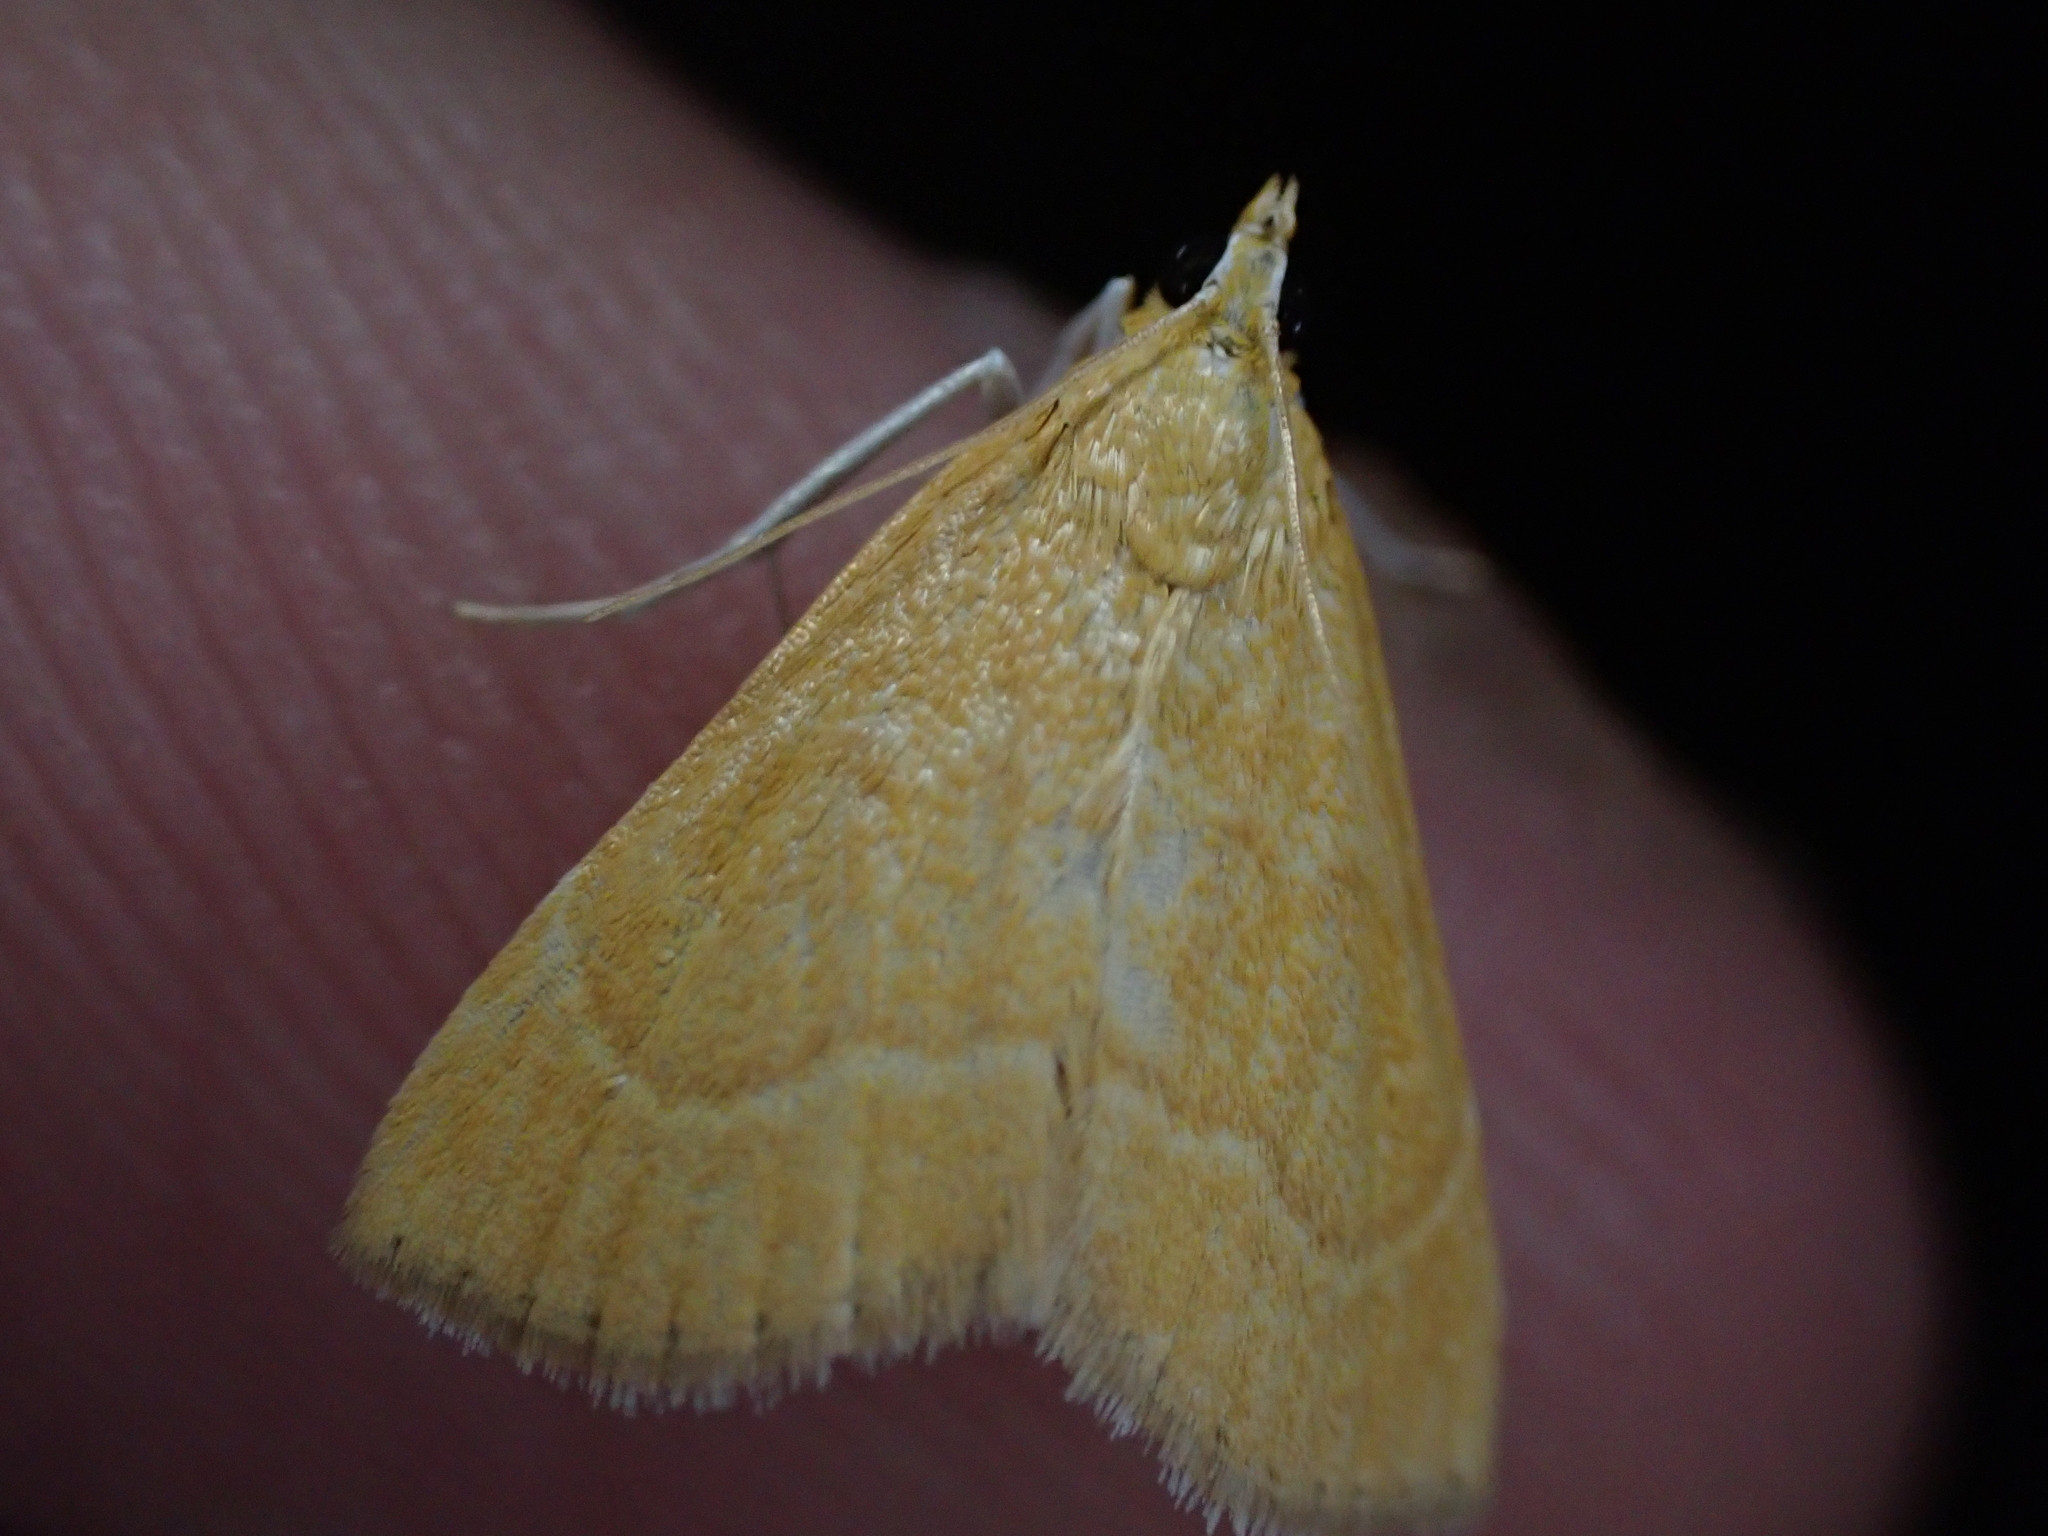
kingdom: Animalia
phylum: Arthropoda
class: Insecta
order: Lepidoptera
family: Crambidae
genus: Glaphyria
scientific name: Glaphyria invisalis
